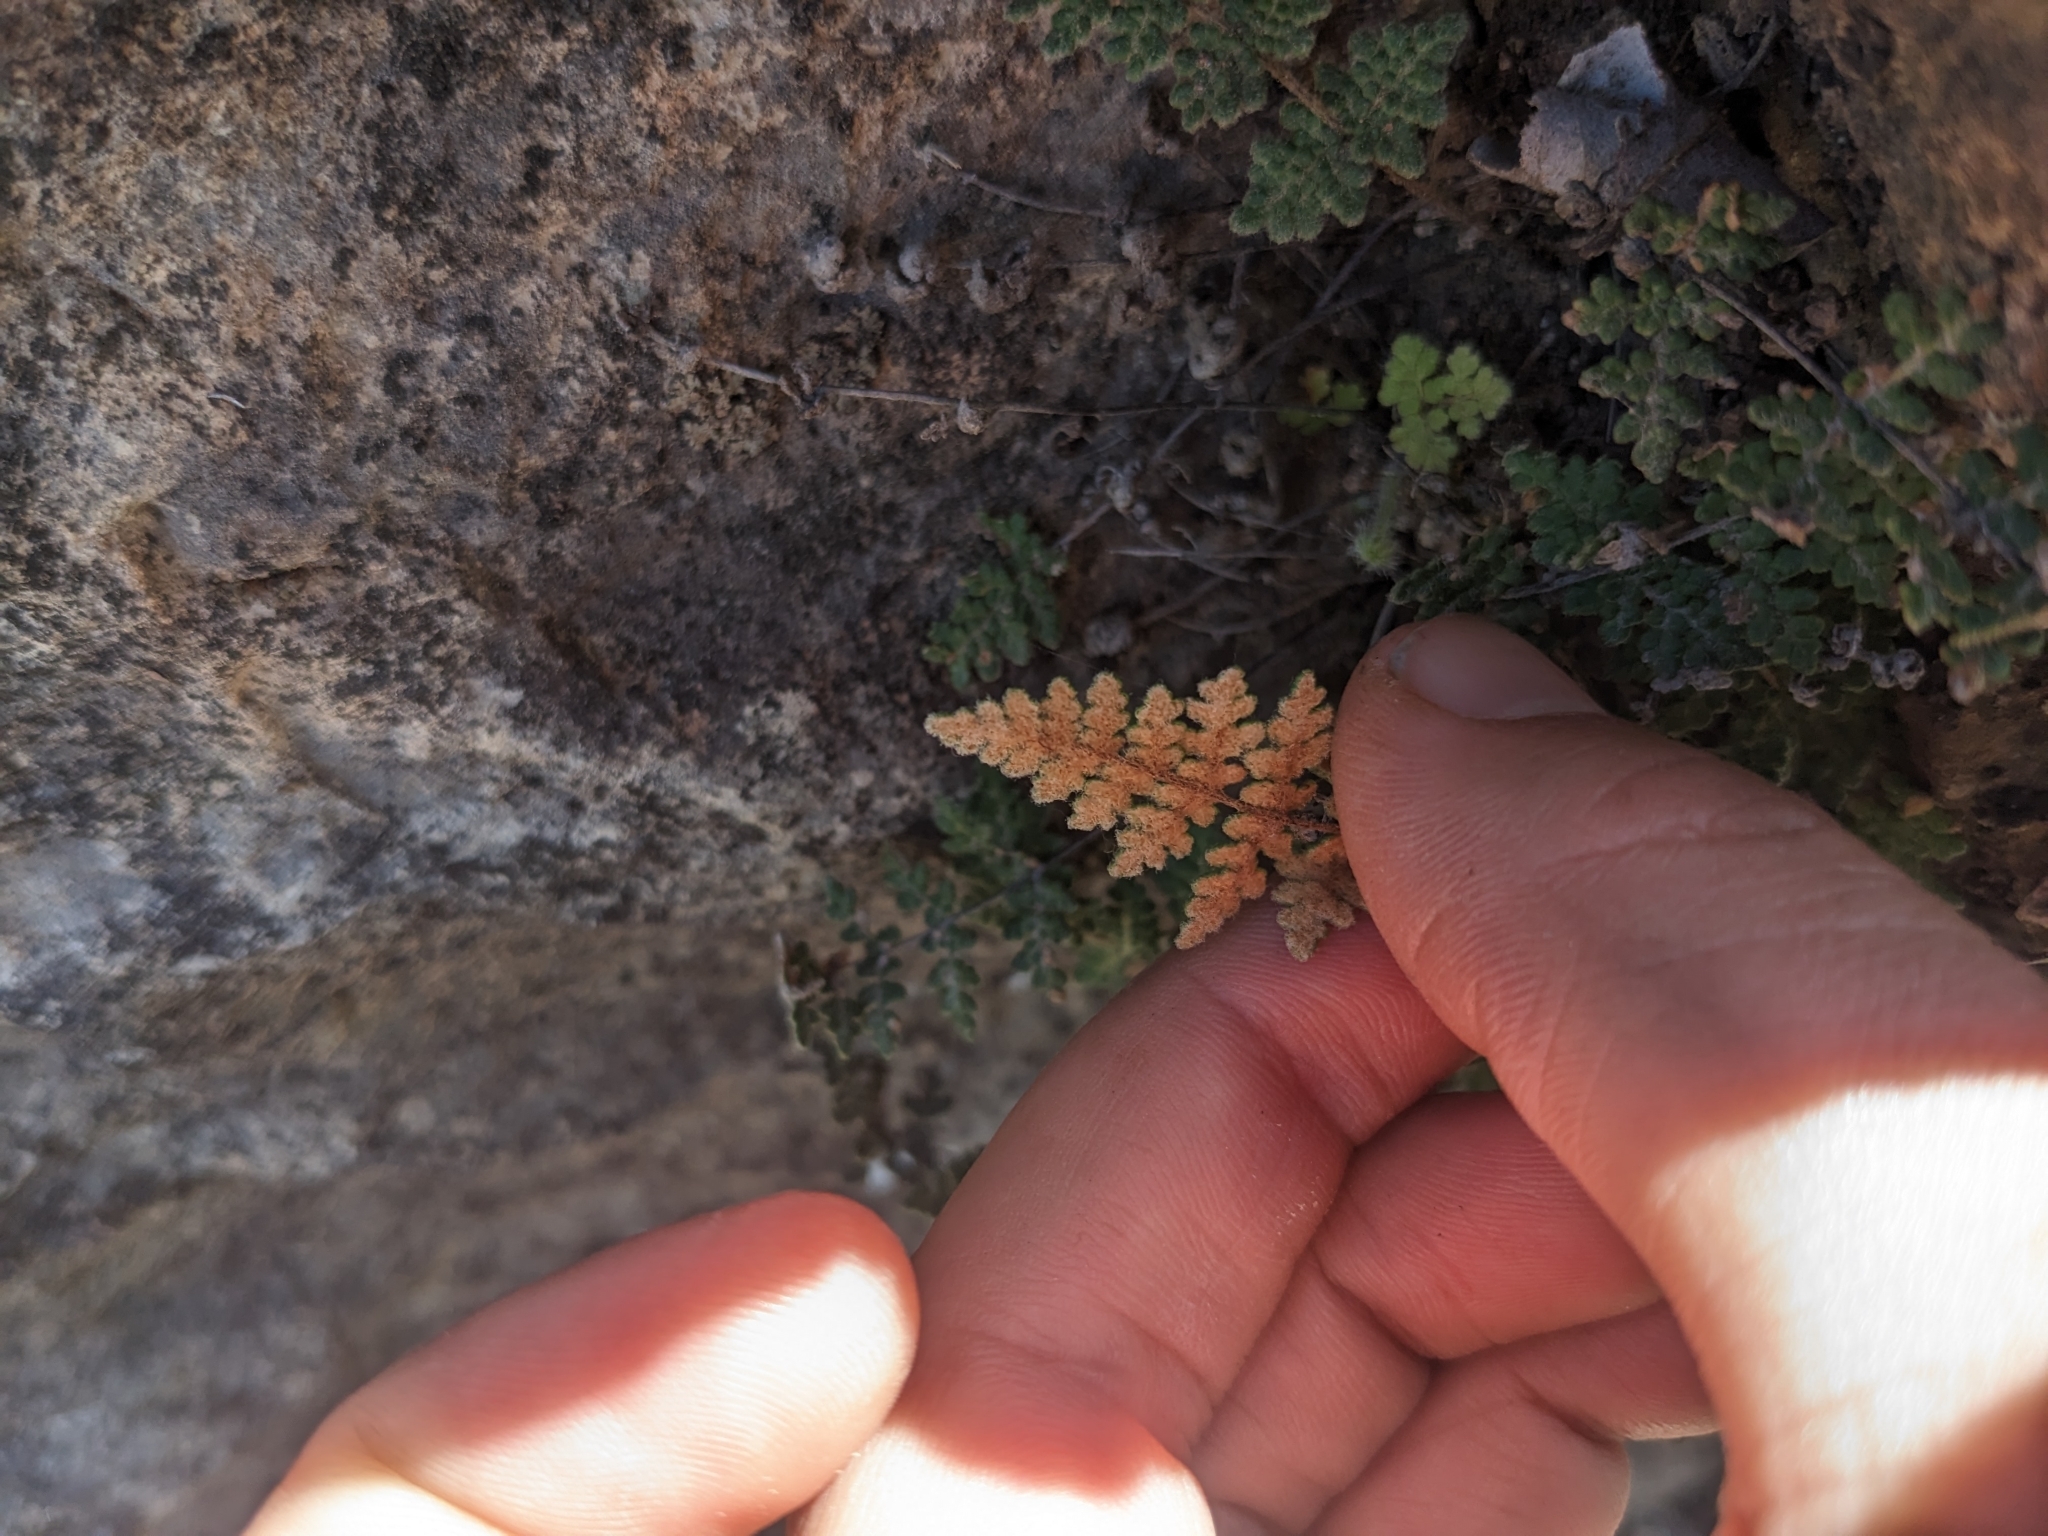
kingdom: Plantae
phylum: Tracheophyta
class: Polypodiopsida
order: Polypodiales
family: Pteridaceae
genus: Myriopteris
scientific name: Myriopteris gracilis
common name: Fee's lip fern
